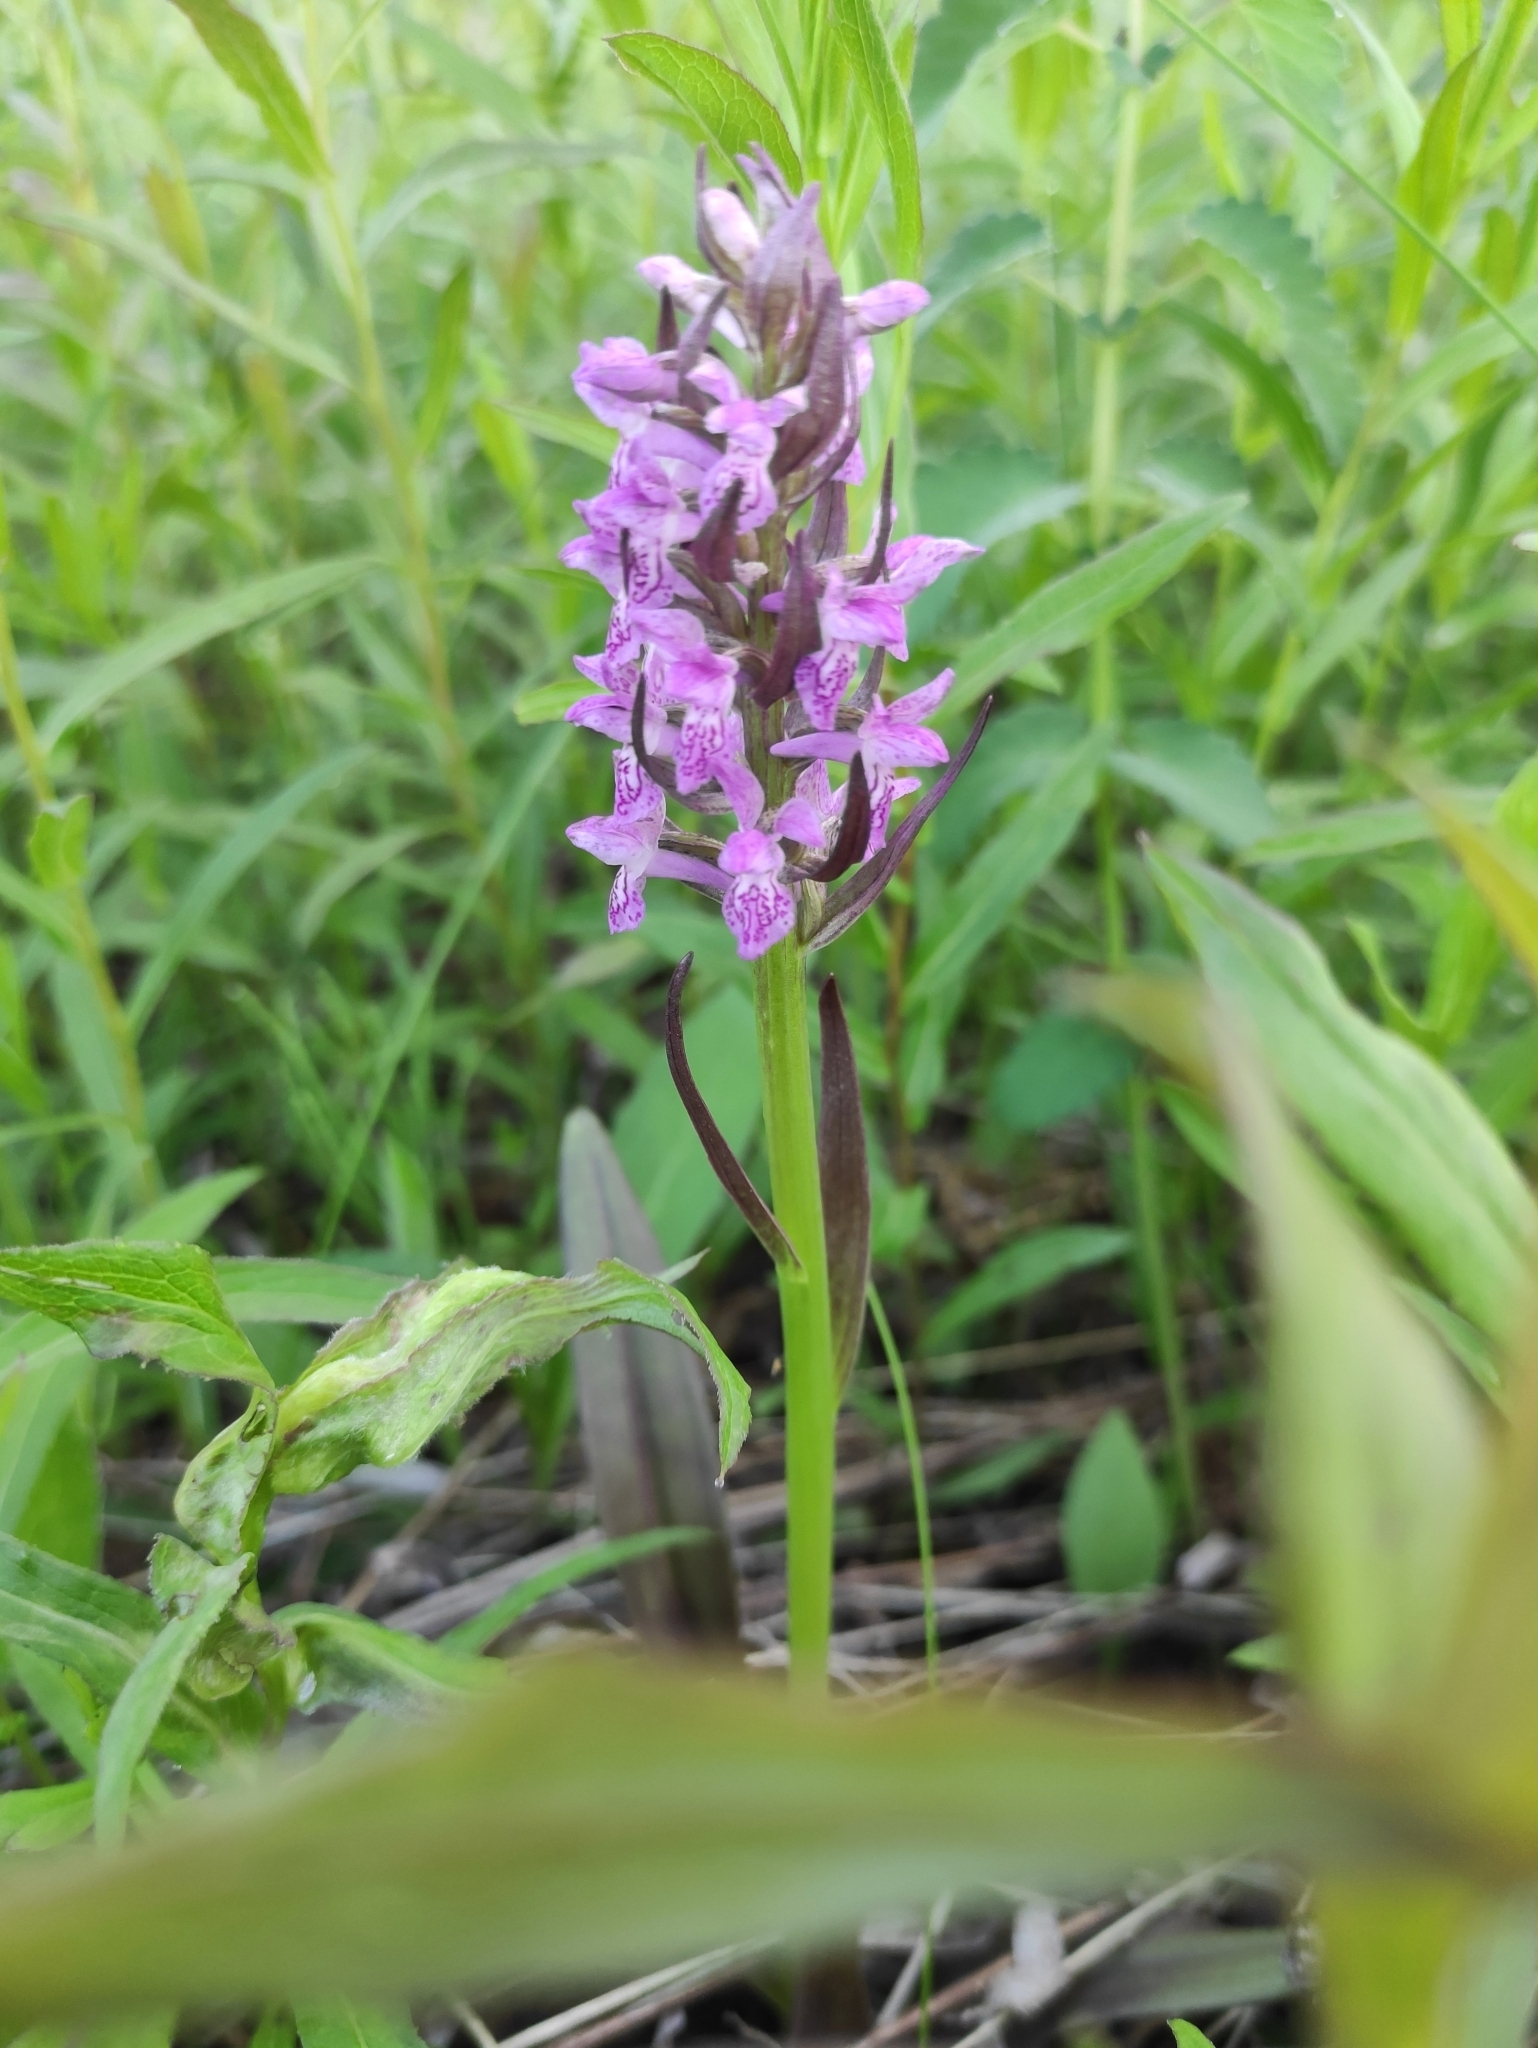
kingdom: Plantae
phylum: Tracheophyta
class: Liliopsida
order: Asparagales
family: Orchidaceae
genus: Dactylorhiza
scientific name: Dactylorhiza incarnata
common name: Early marsh-orchid
